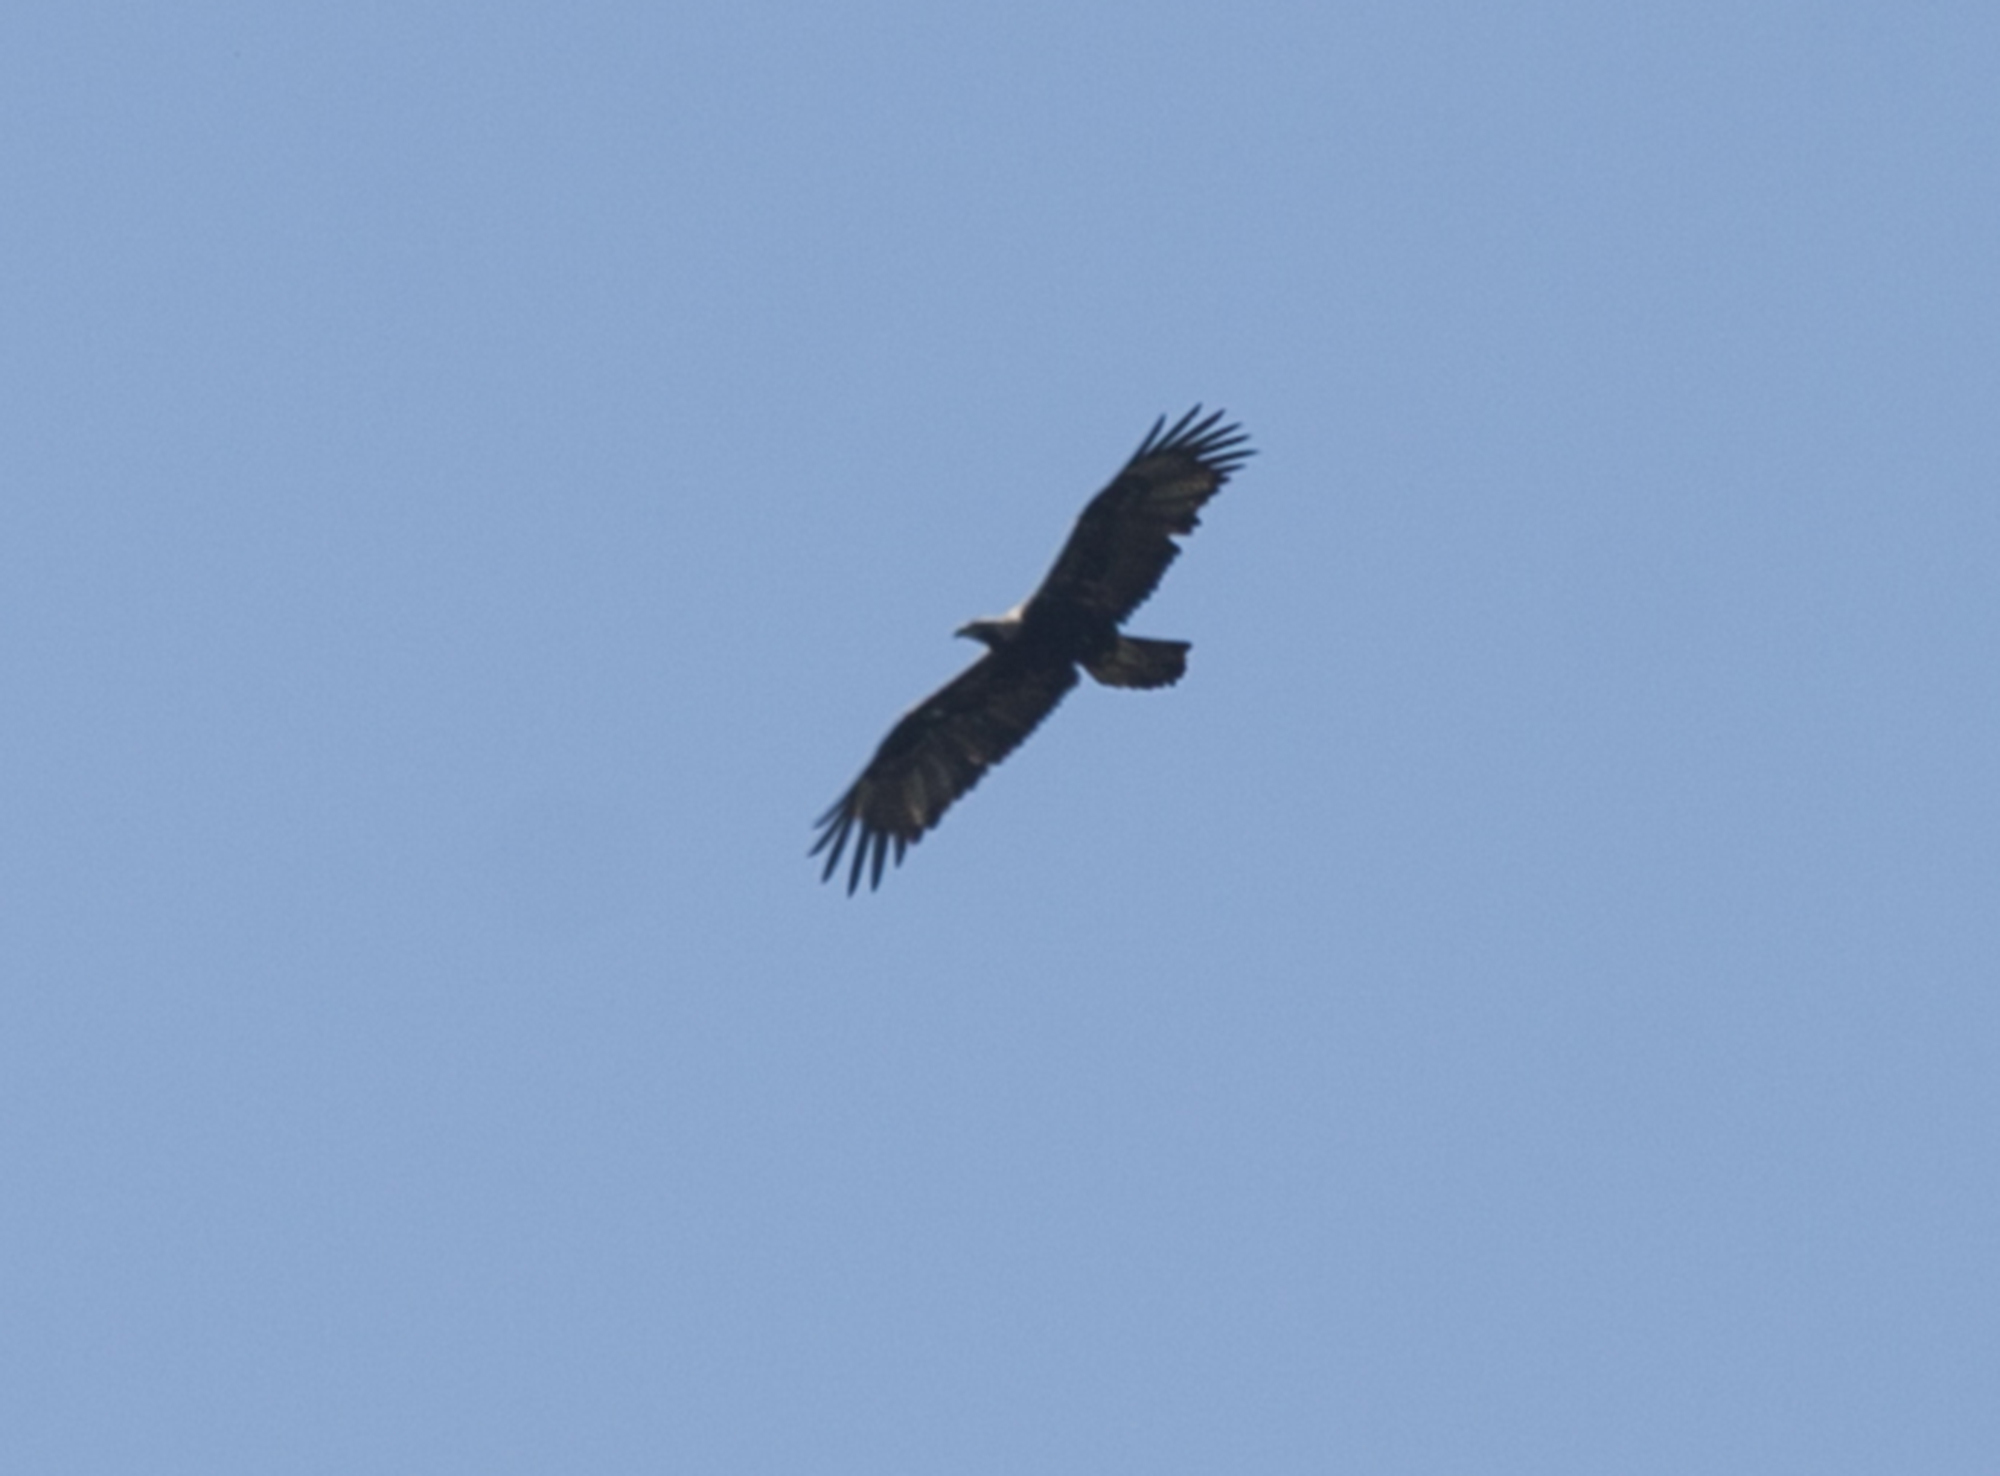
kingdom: Animalia
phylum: Chordata
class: Aves
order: Accipitriformes
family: Accipitridae
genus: Aquila
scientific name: Aquila heliaca
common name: Eastern imperial eagle
